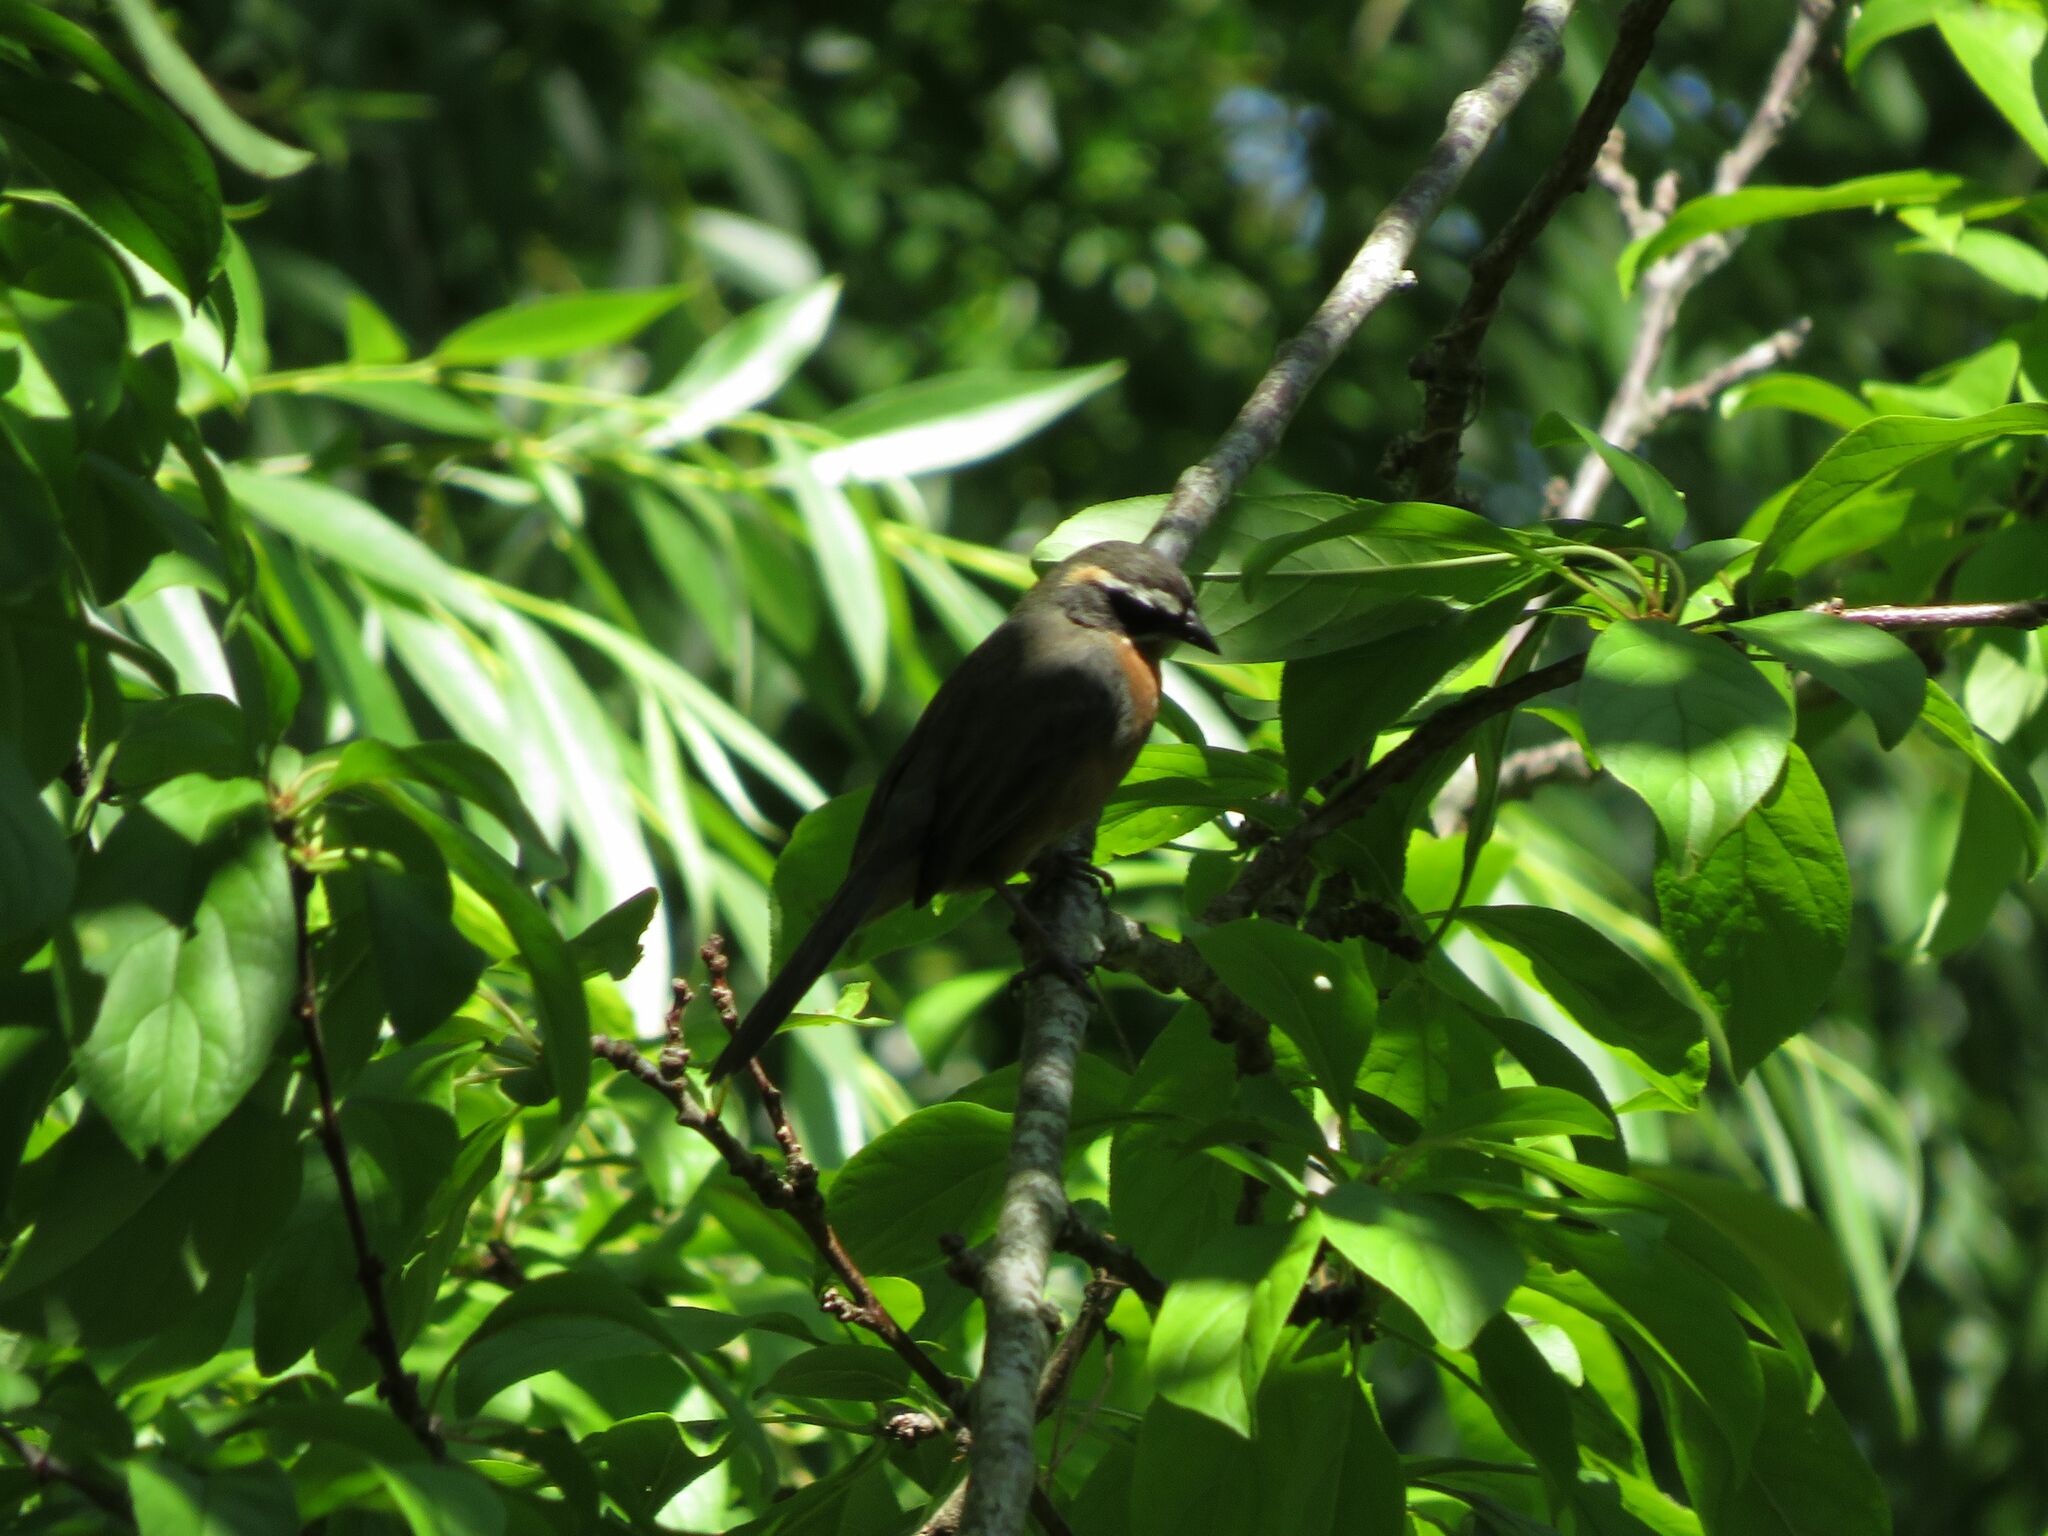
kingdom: Animalia
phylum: Chordata
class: Aves
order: Passeriformes
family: Thraupidae
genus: Poospiza
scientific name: Poospiza nigrorufa
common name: Black-and-rufous warbling finch
